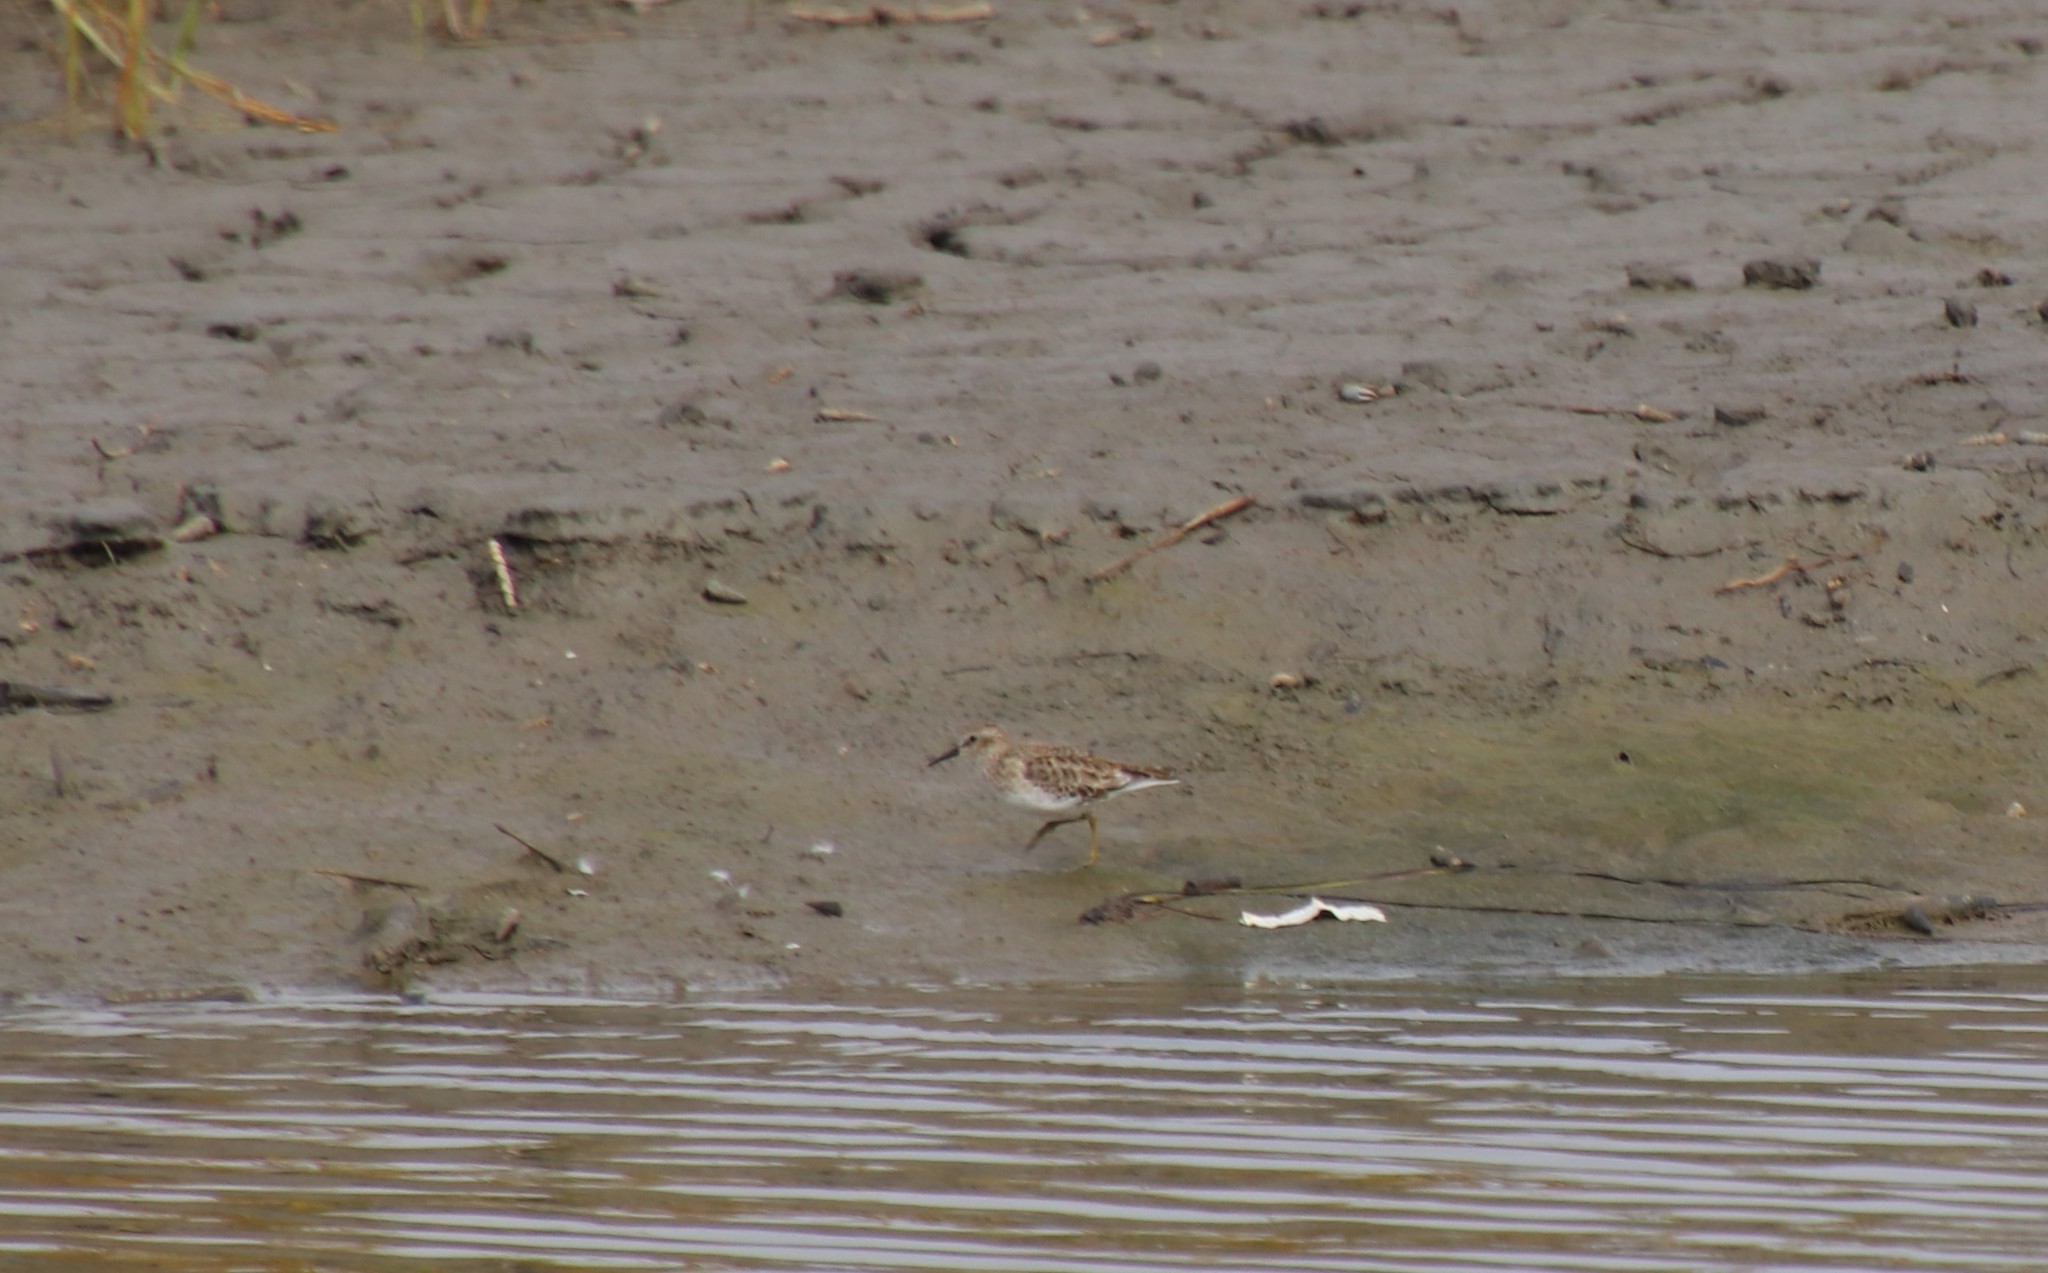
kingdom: Animalia
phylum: Chordata
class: Aves
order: Charadriiformes
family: Scolopacidae
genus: Calidris
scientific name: Calidris minutilla
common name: Least sandpiper
